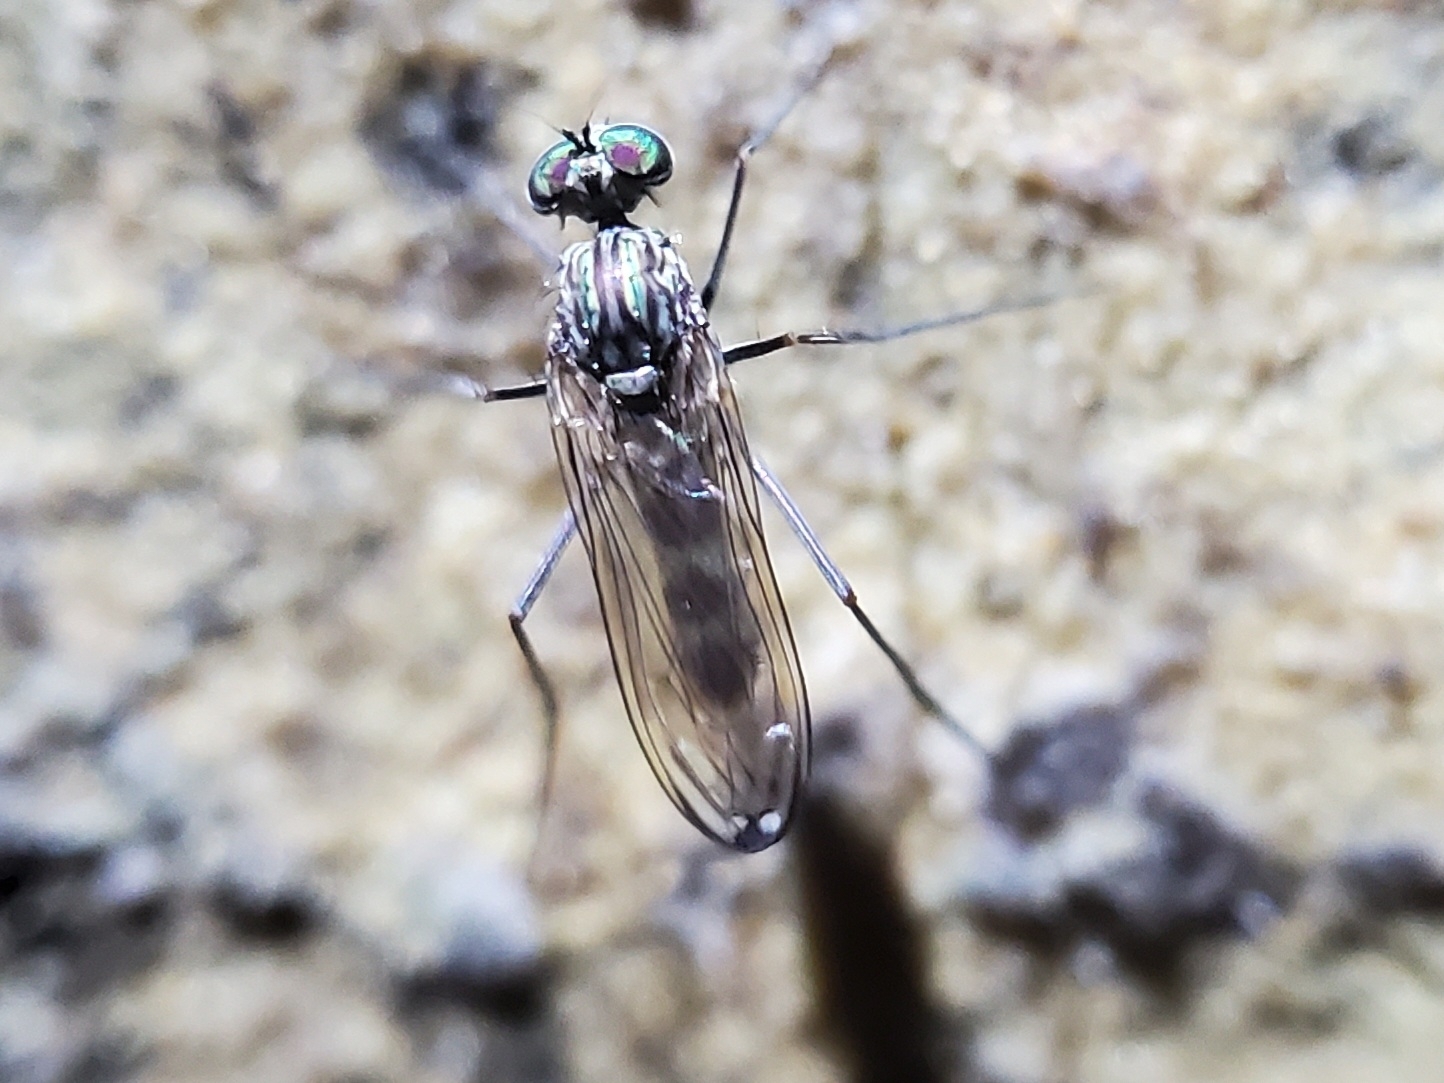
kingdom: Animalia
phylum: Arthropoda
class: Insecta
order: Diptera
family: Dolichopodidae
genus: Liancalus
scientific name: Liancalus genualis
